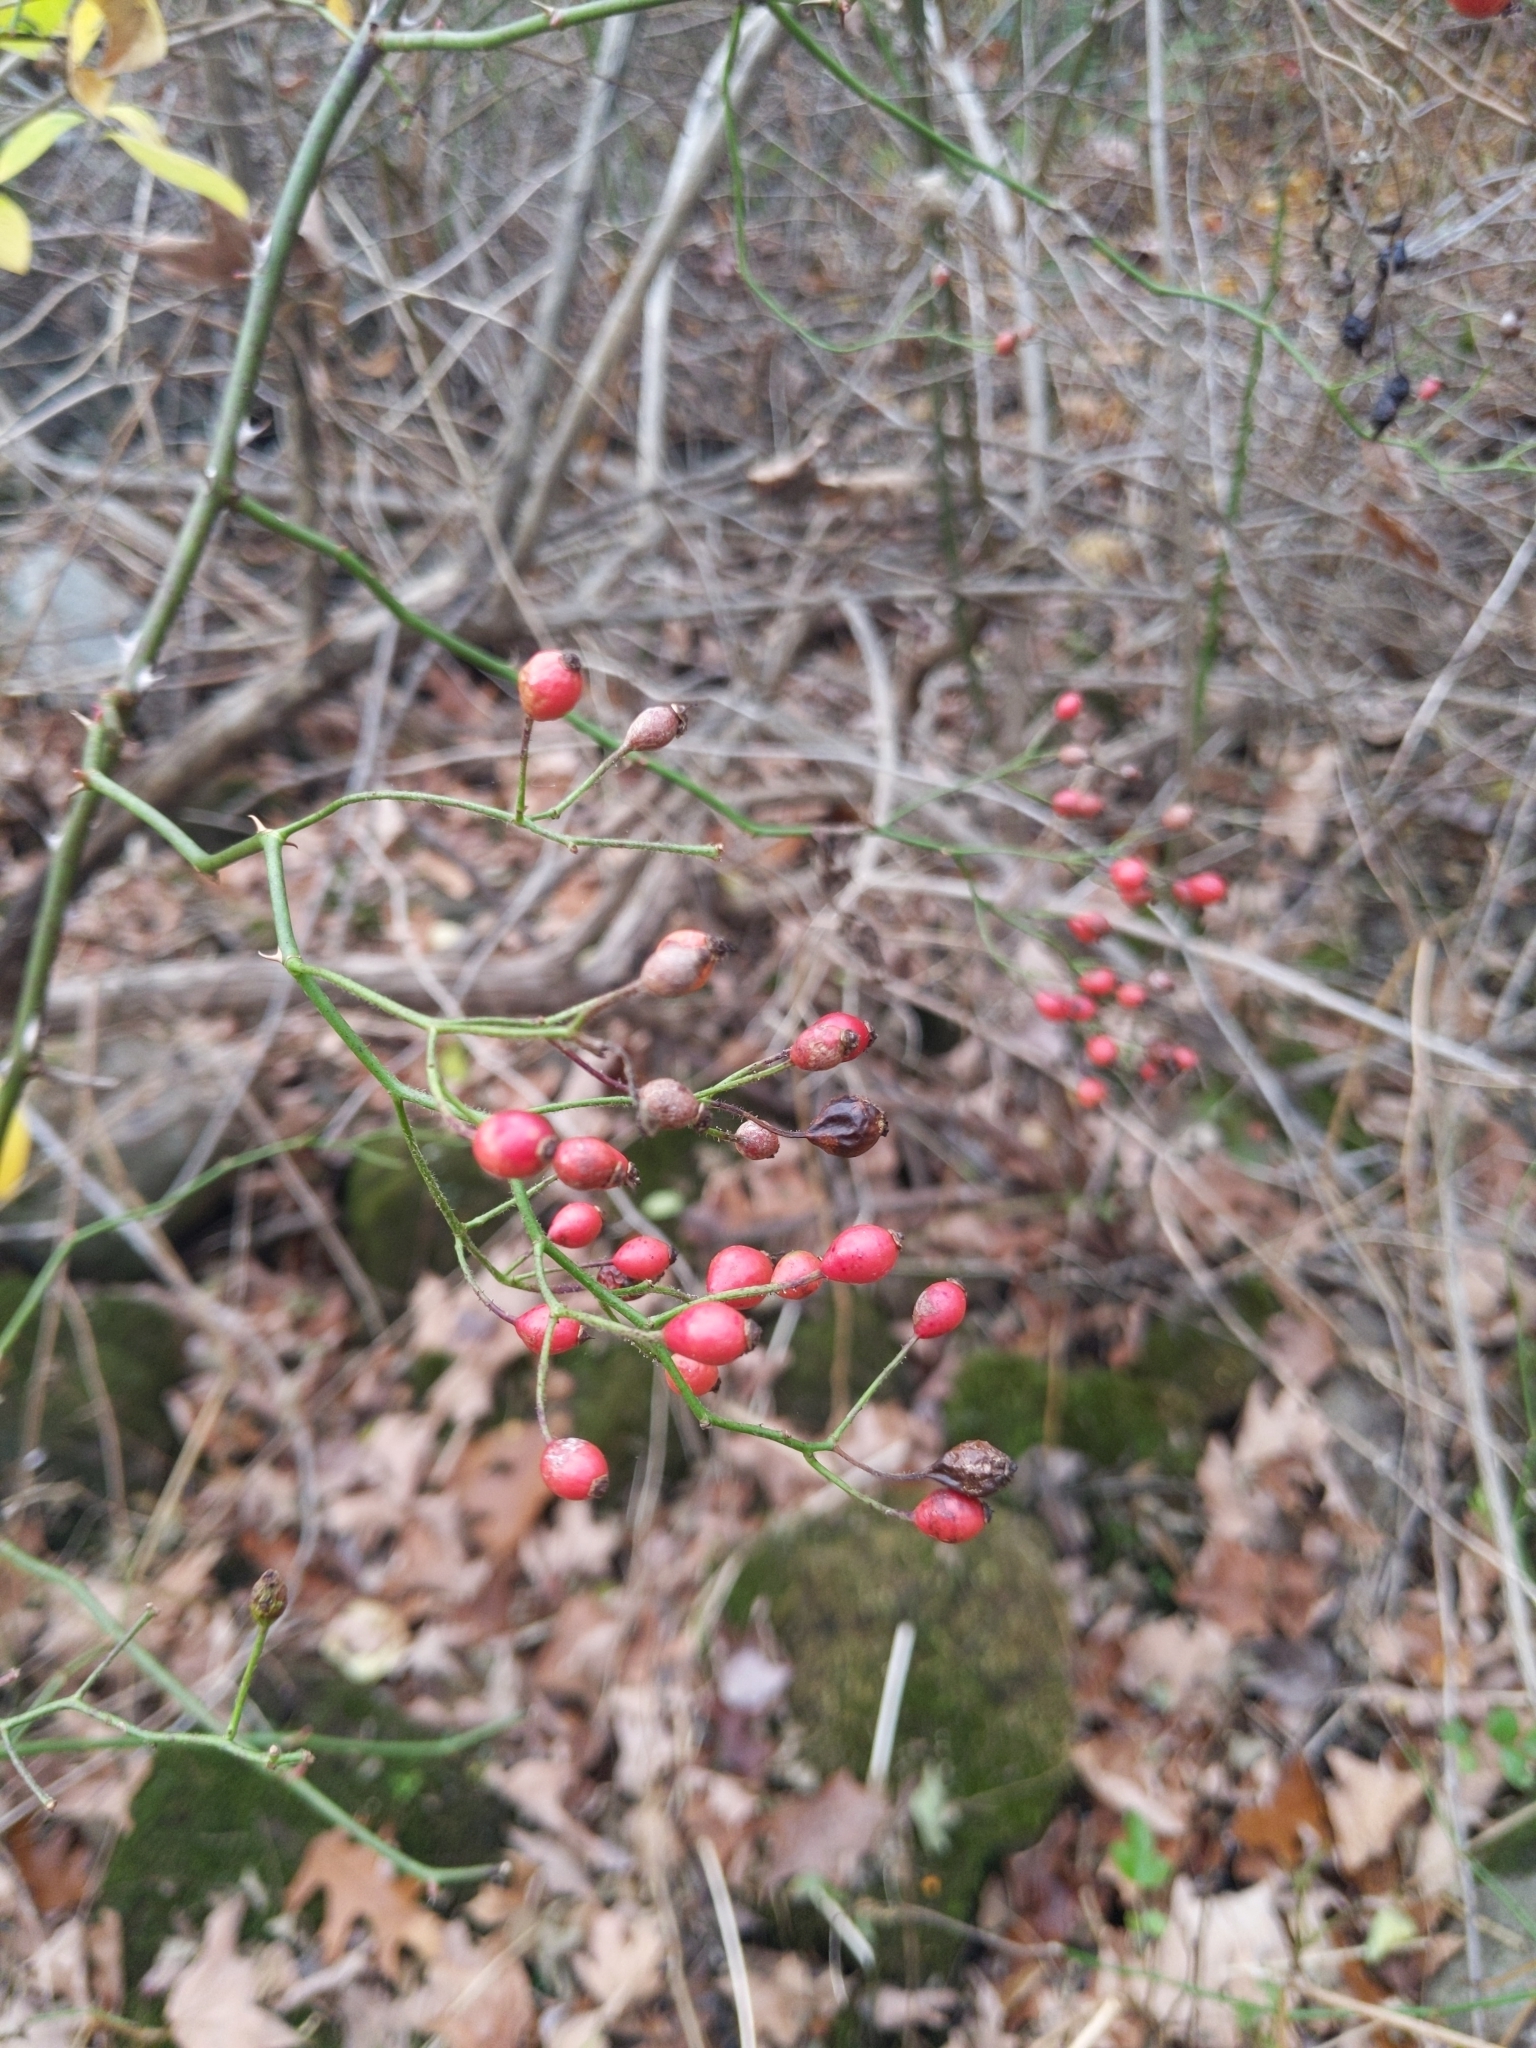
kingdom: Plantae
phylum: Tracheophyta
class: Magnoliopsida
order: Rosales
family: Rosaceae
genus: Rosa
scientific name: Rosa multiflora
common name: Multiflora rose
